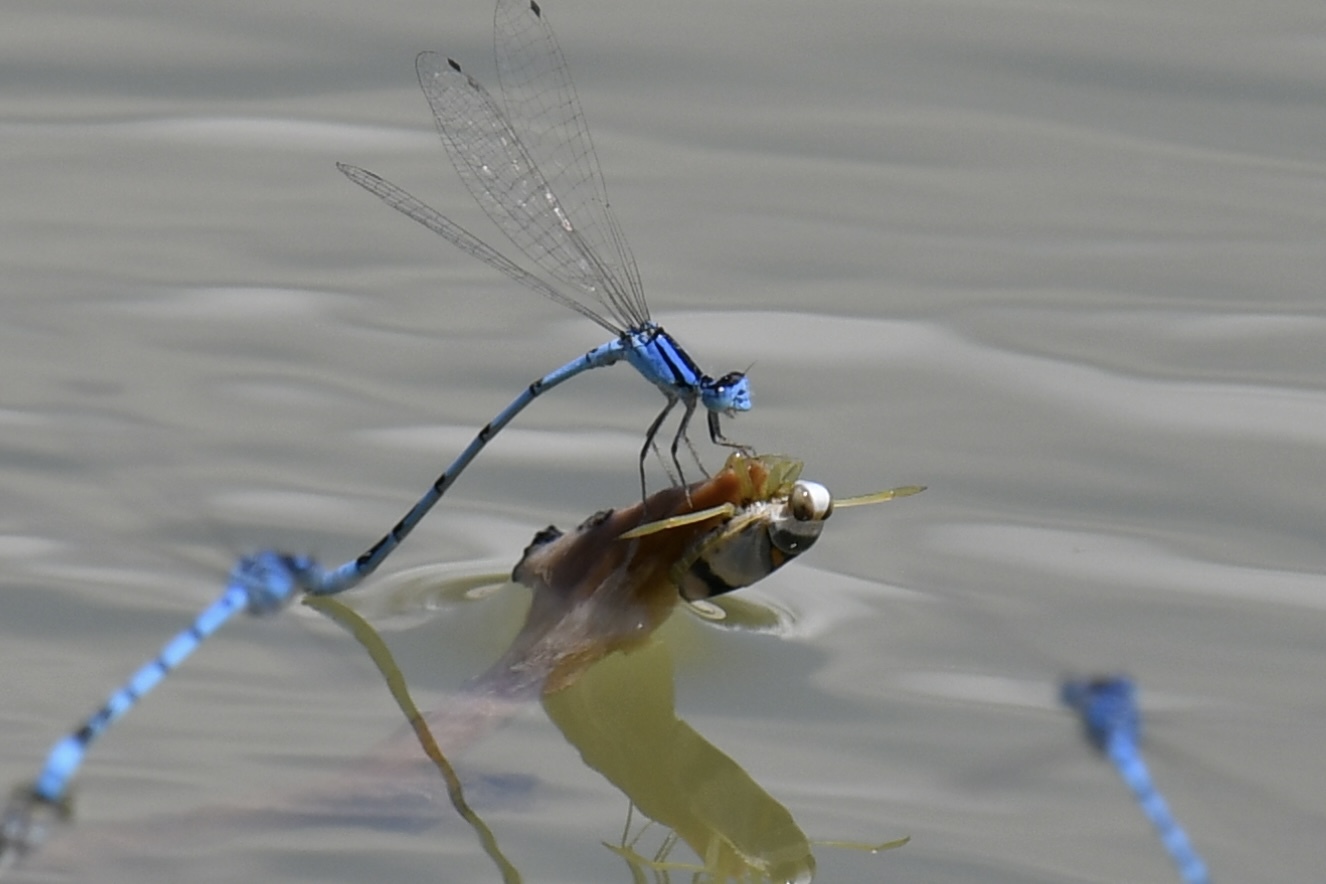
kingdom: Animalia
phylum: Arthropoda
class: Insecta
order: Odonata
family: Coenagrionidae
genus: Enallagma
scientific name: Enallagma civile
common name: Damselfly
